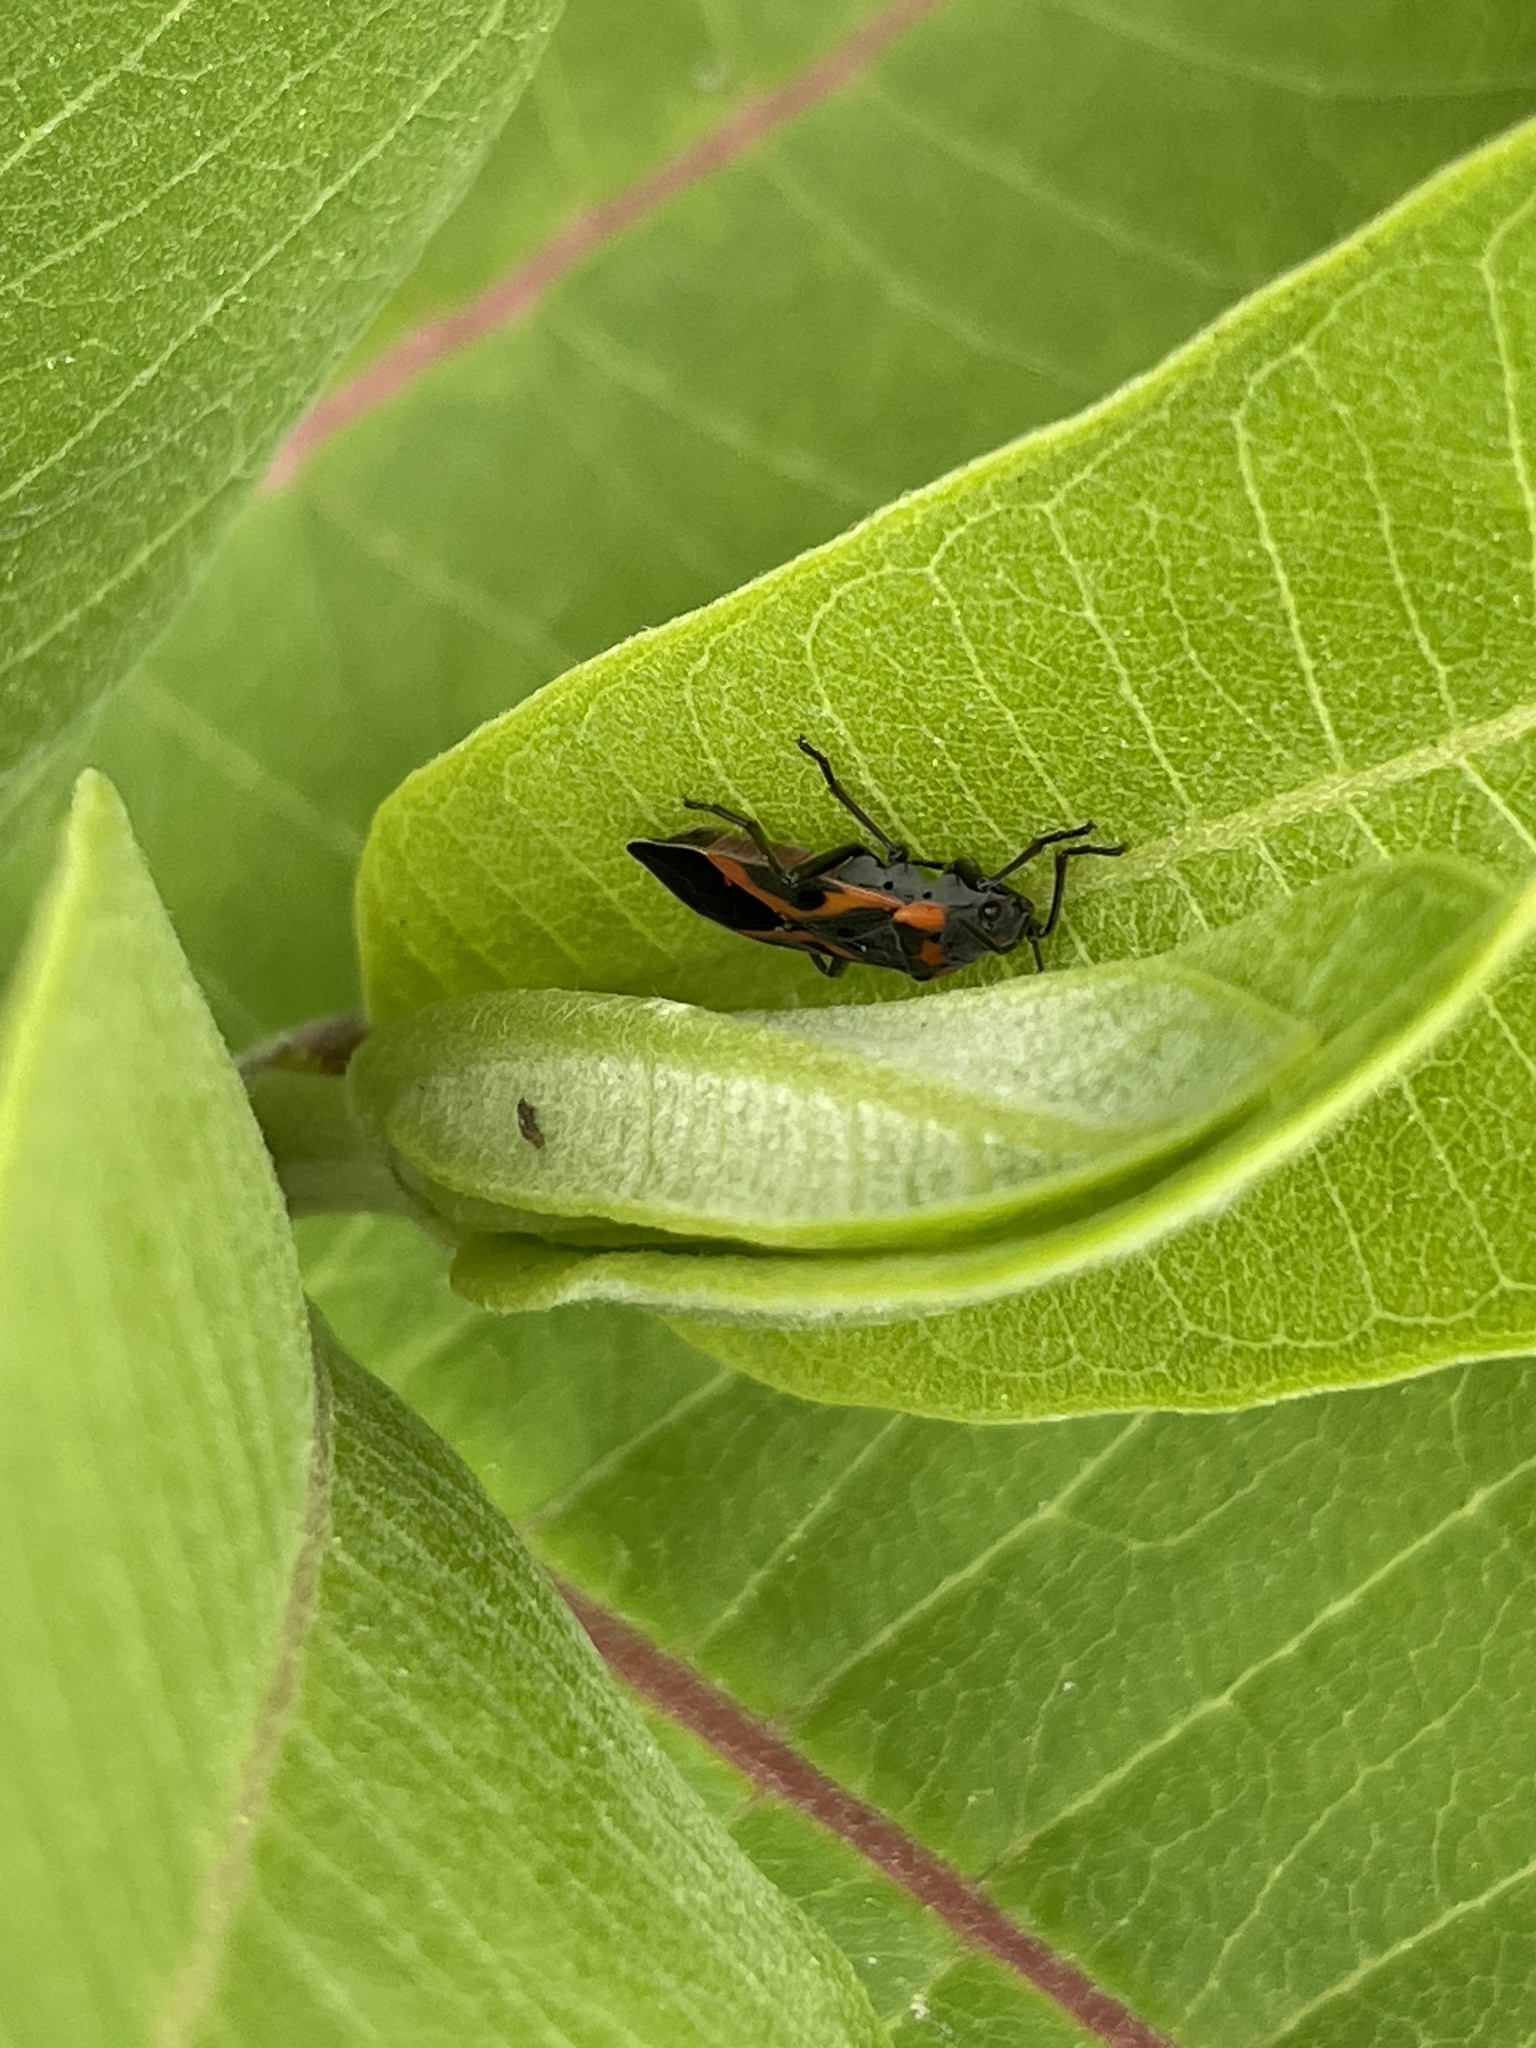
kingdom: Animalia
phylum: Arthropoda
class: Insecta
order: Hemiptera
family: Lygaeidae
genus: Lygaeus
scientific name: Lygaeus kalmii
